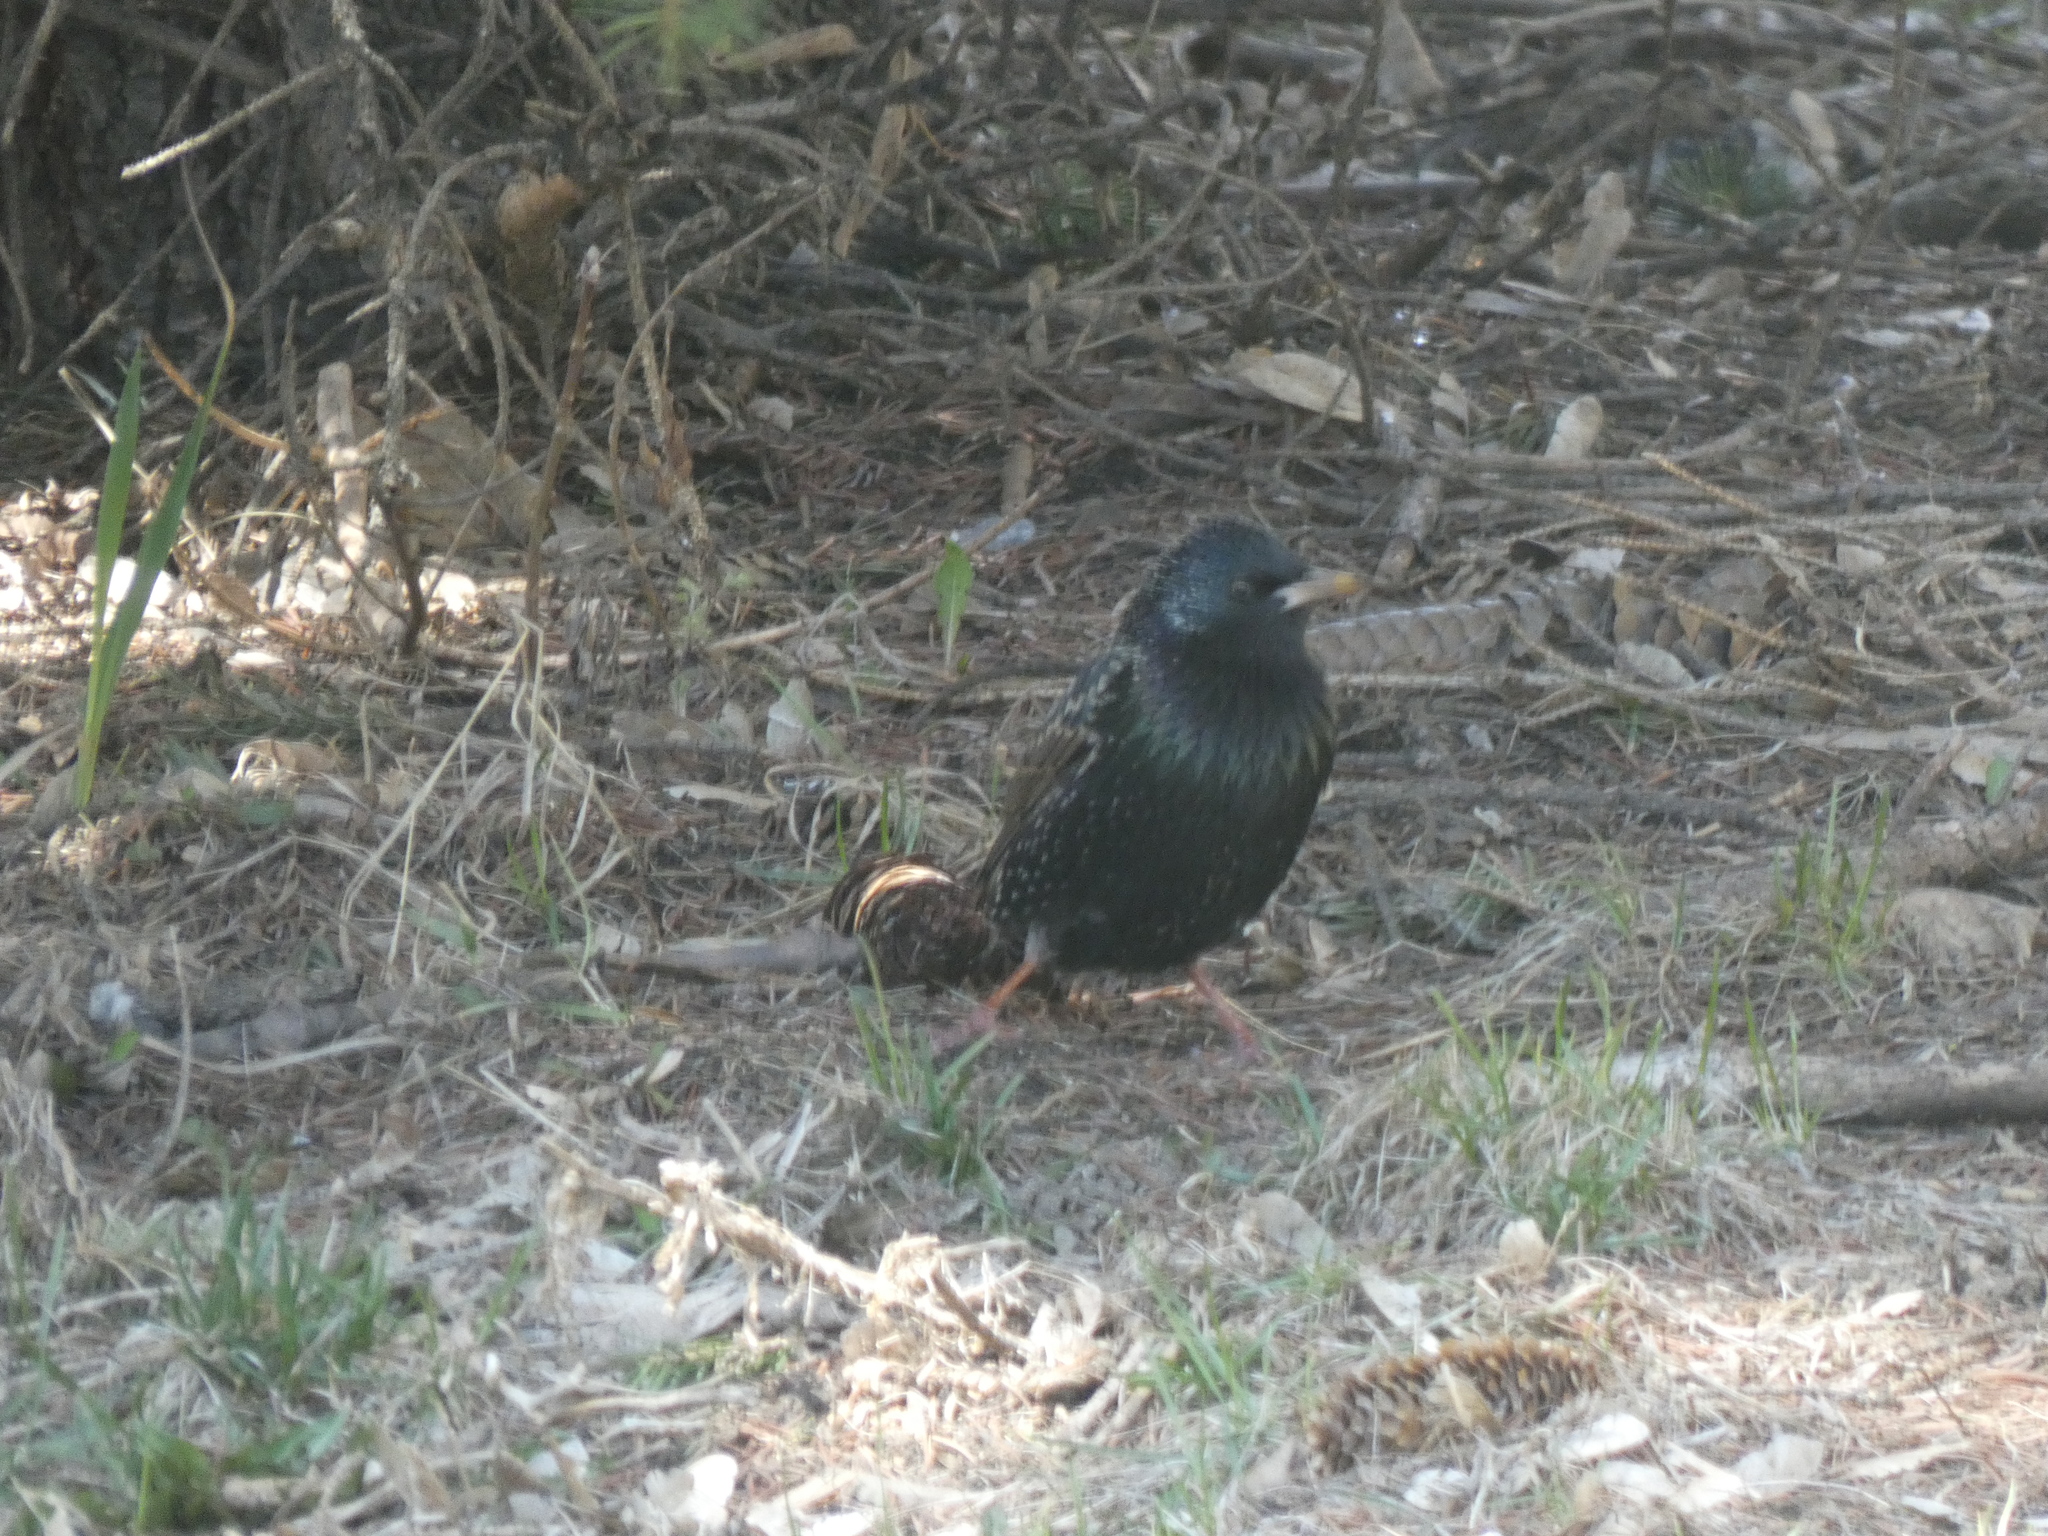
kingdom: Animalia
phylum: Chordata
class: Aves
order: Passeriformes
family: Sturnidae
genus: Sturnus
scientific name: Sturnus vulgaris
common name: Common starling
